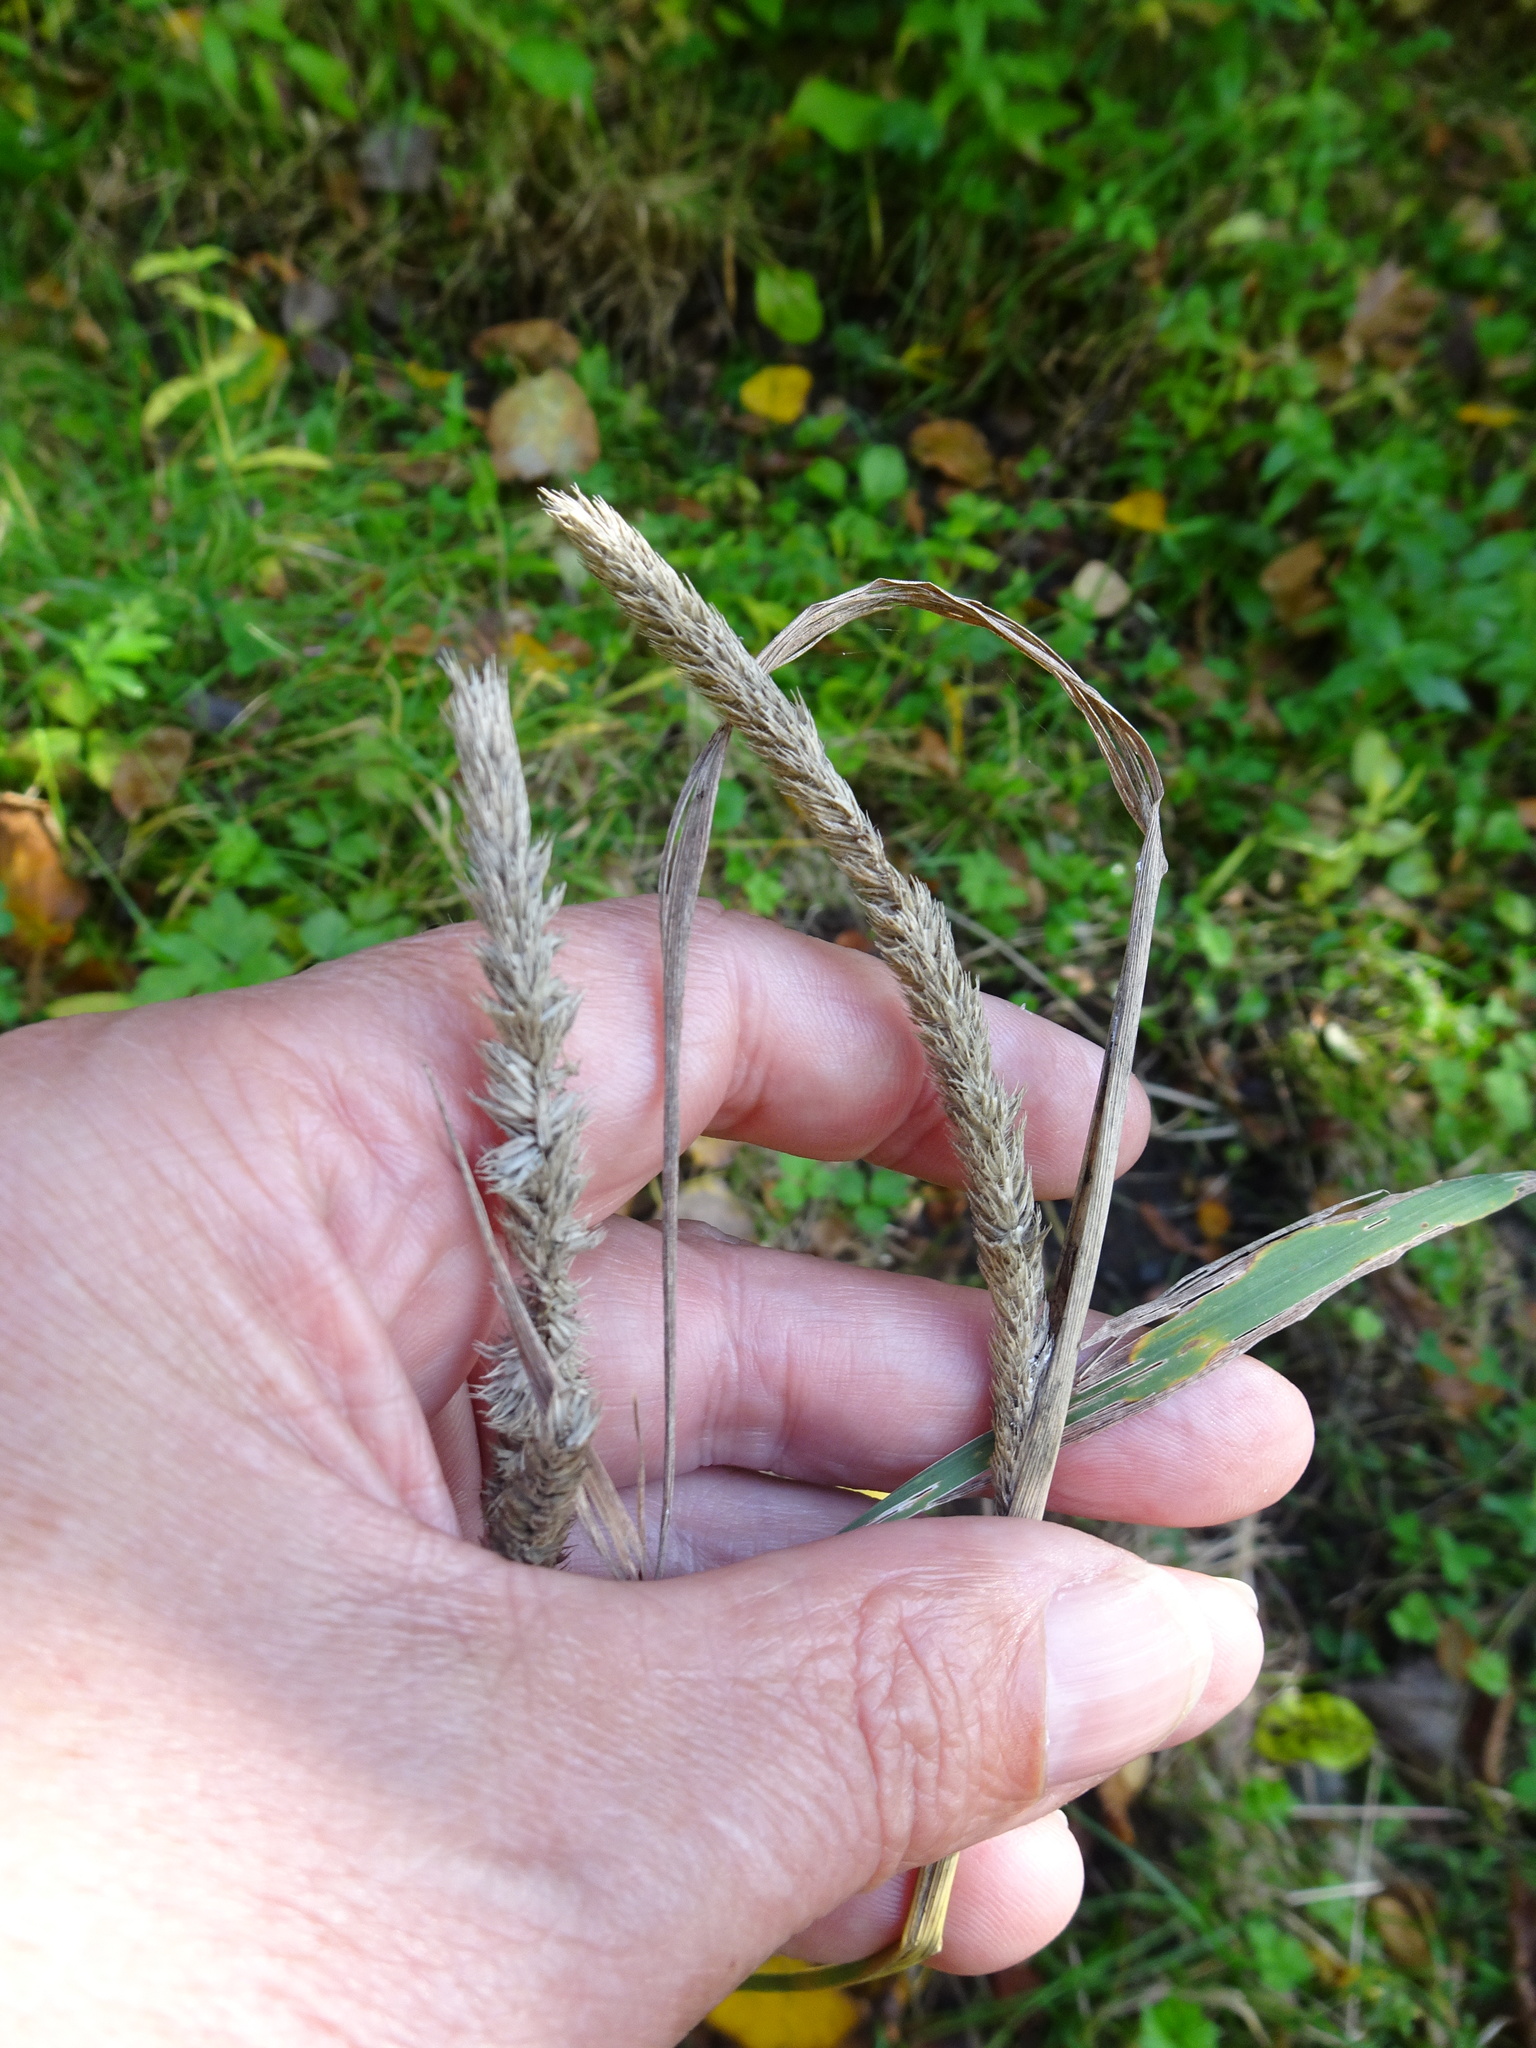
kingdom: Plantae
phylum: Tracheophyta
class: Liliopsida
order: Poales
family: Poaceae
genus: Phleum
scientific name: Phleum pratense
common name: Timothy grass
